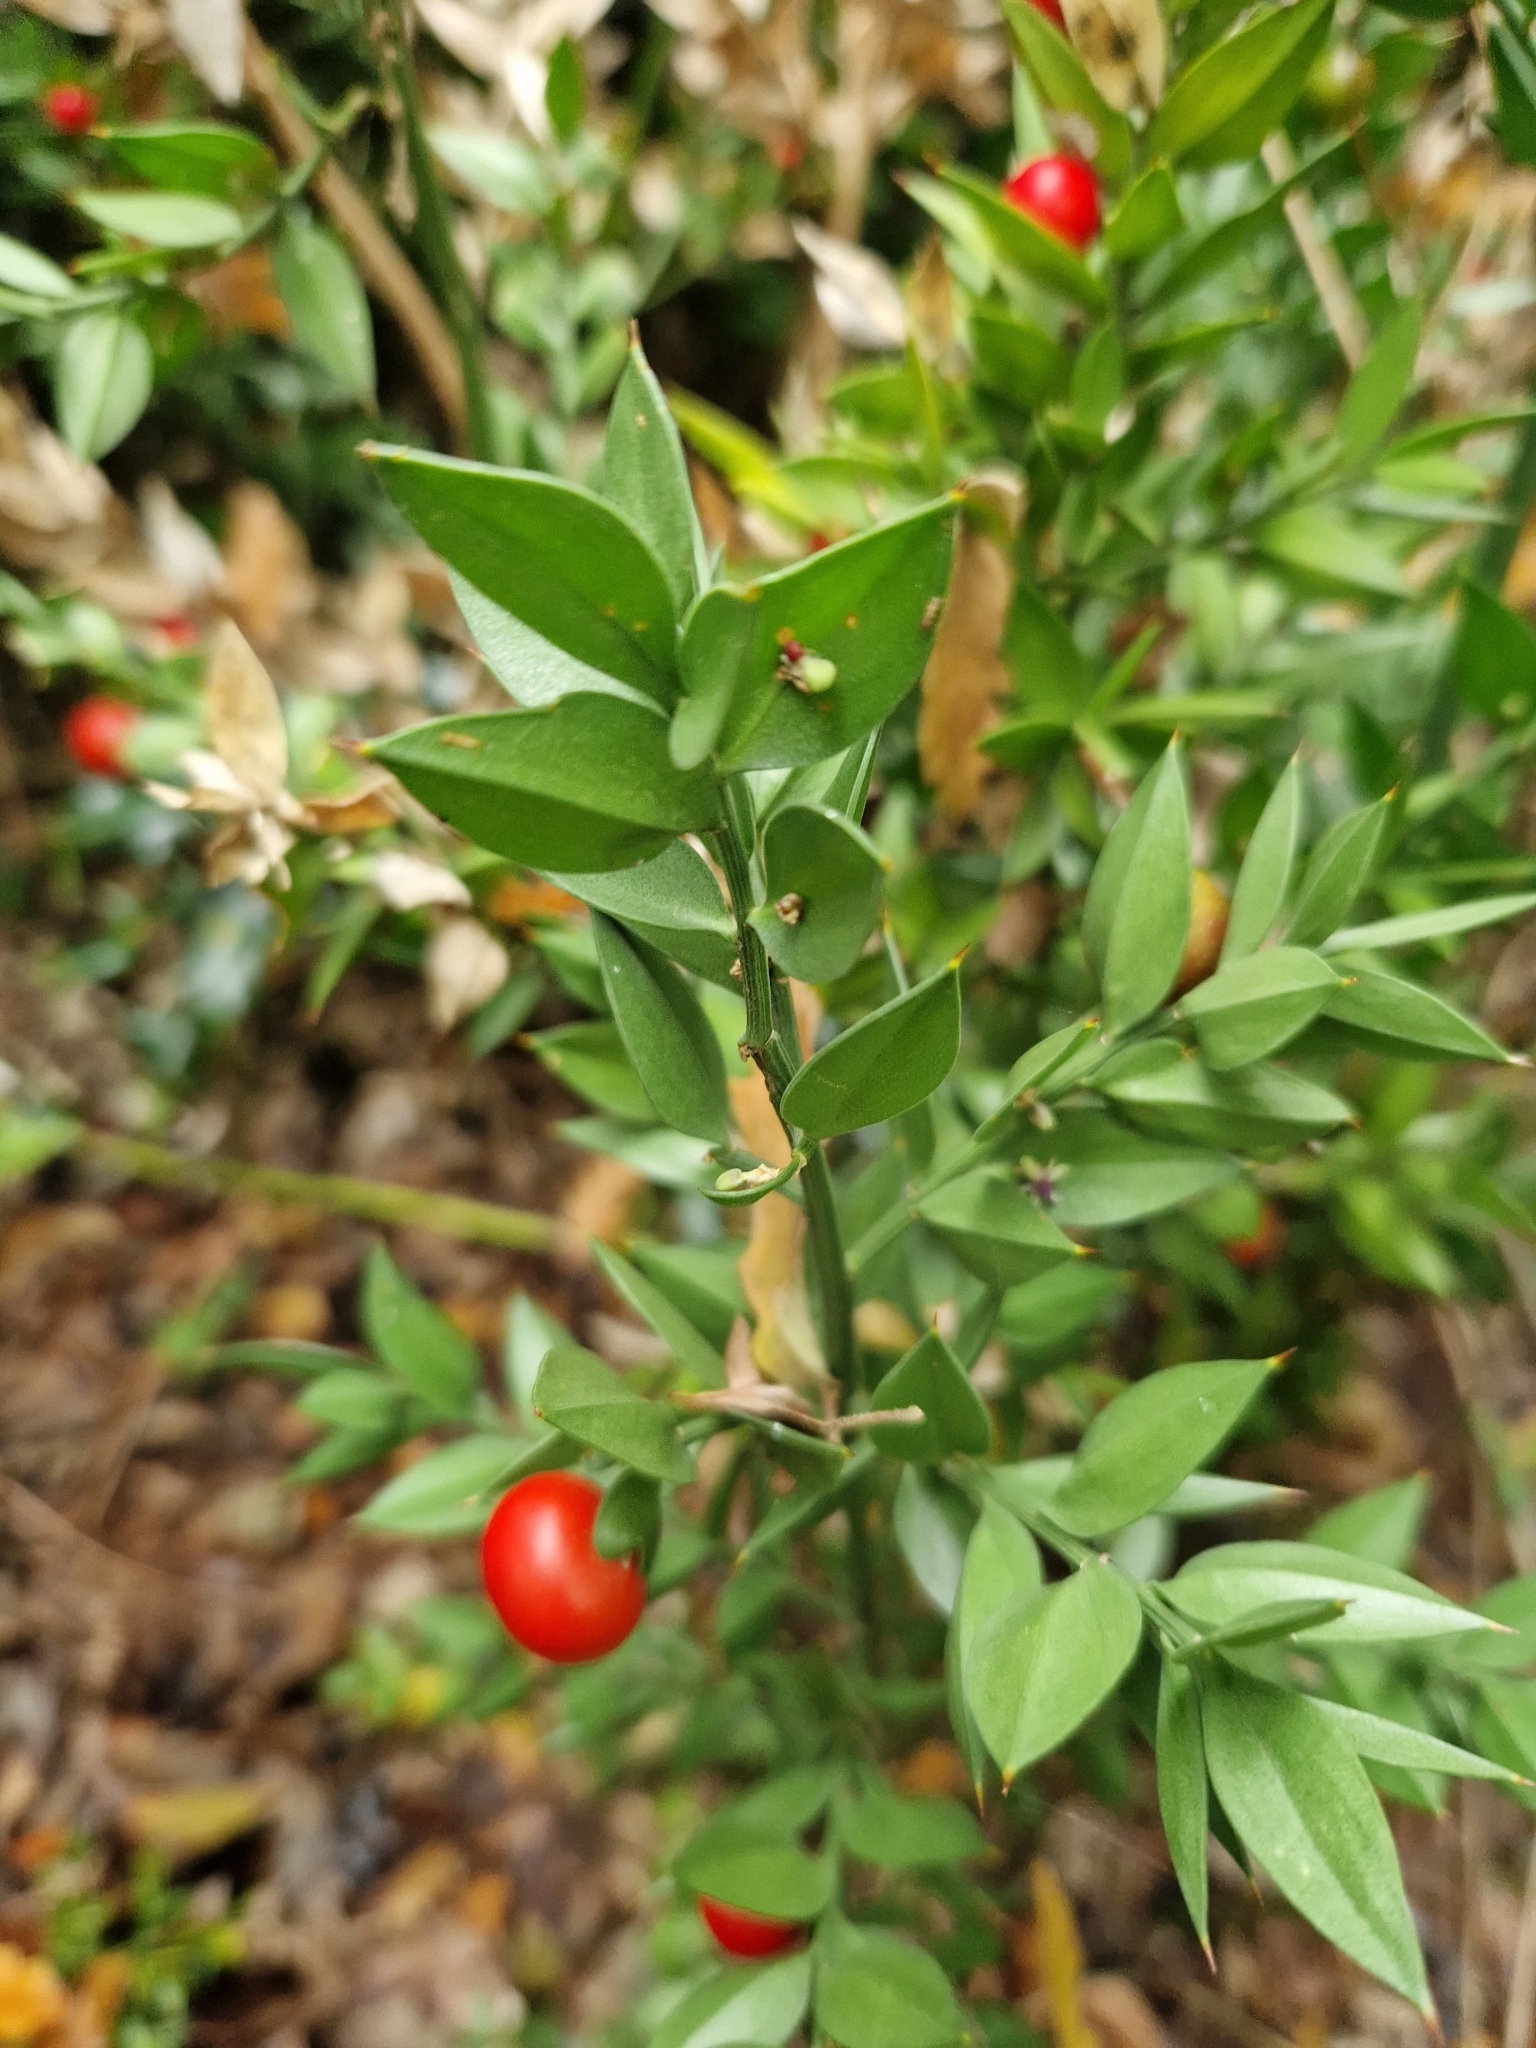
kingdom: Plantae
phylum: Tracheophyta
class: Liliopsida
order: Asparagales
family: Asparagaceae
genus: Ruscus
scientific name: Ruscus aculeatus
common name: Butcher's-broom
